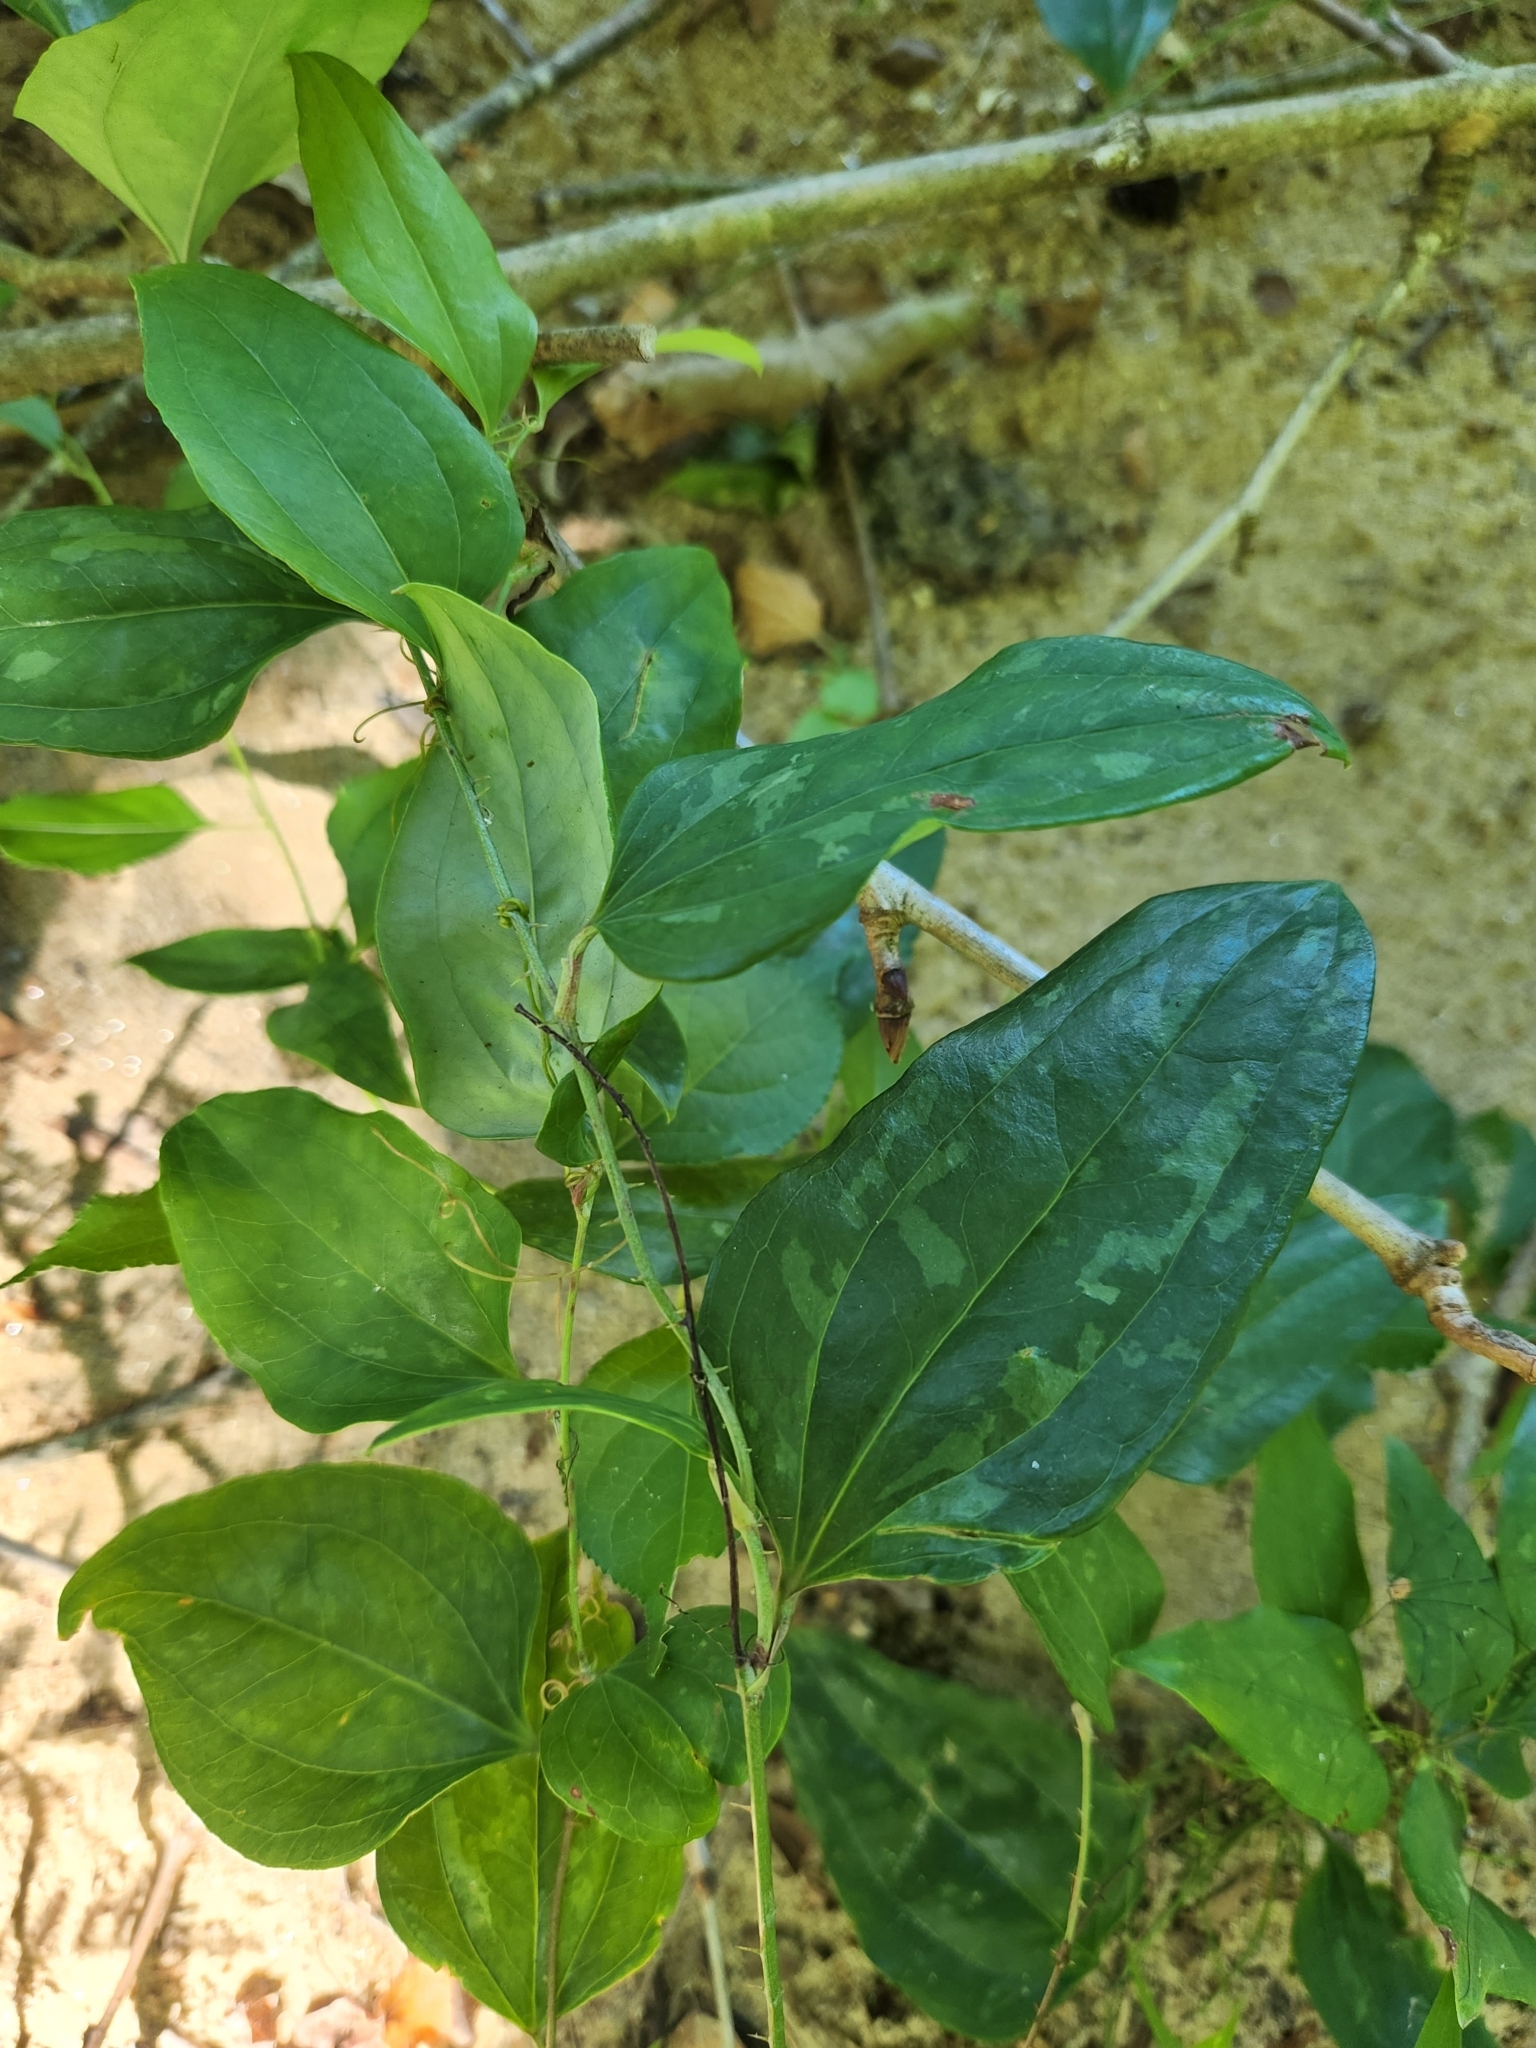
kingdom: Plantae
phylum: Tracheophyta
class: Liliopsida
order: Liliales
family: Smilacaceae
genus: Smilax
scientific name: Smilax tamnoides
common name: Hellfetter
